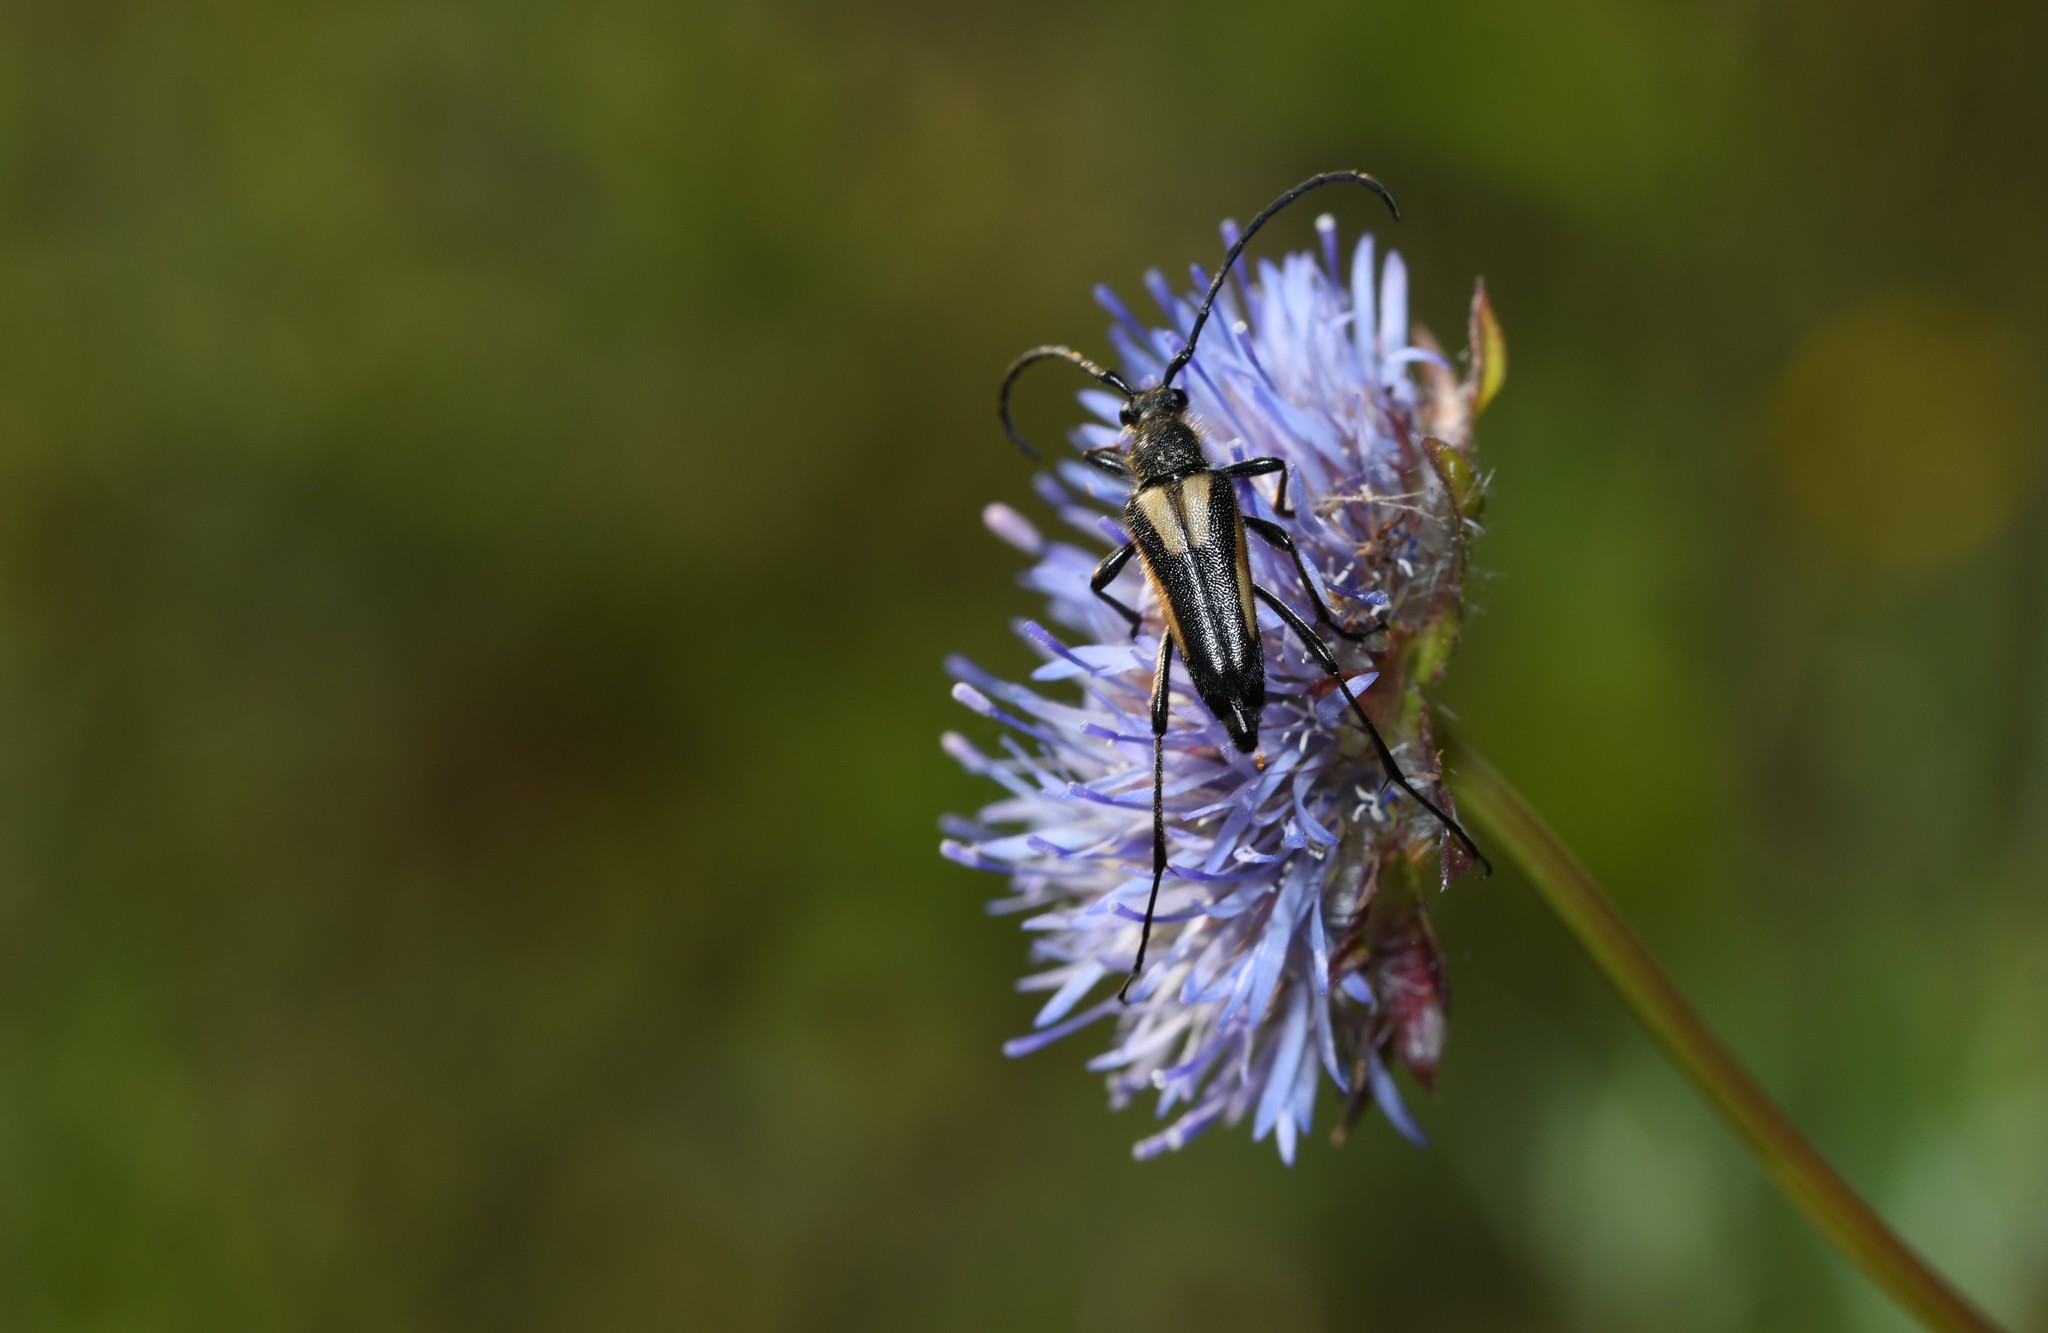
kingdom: Animalia
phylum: Arthropoda
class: Insecta
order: Coleoptera
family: Cerambycidae
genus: Stictoleptura
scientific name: Stictoleptura stragulata
